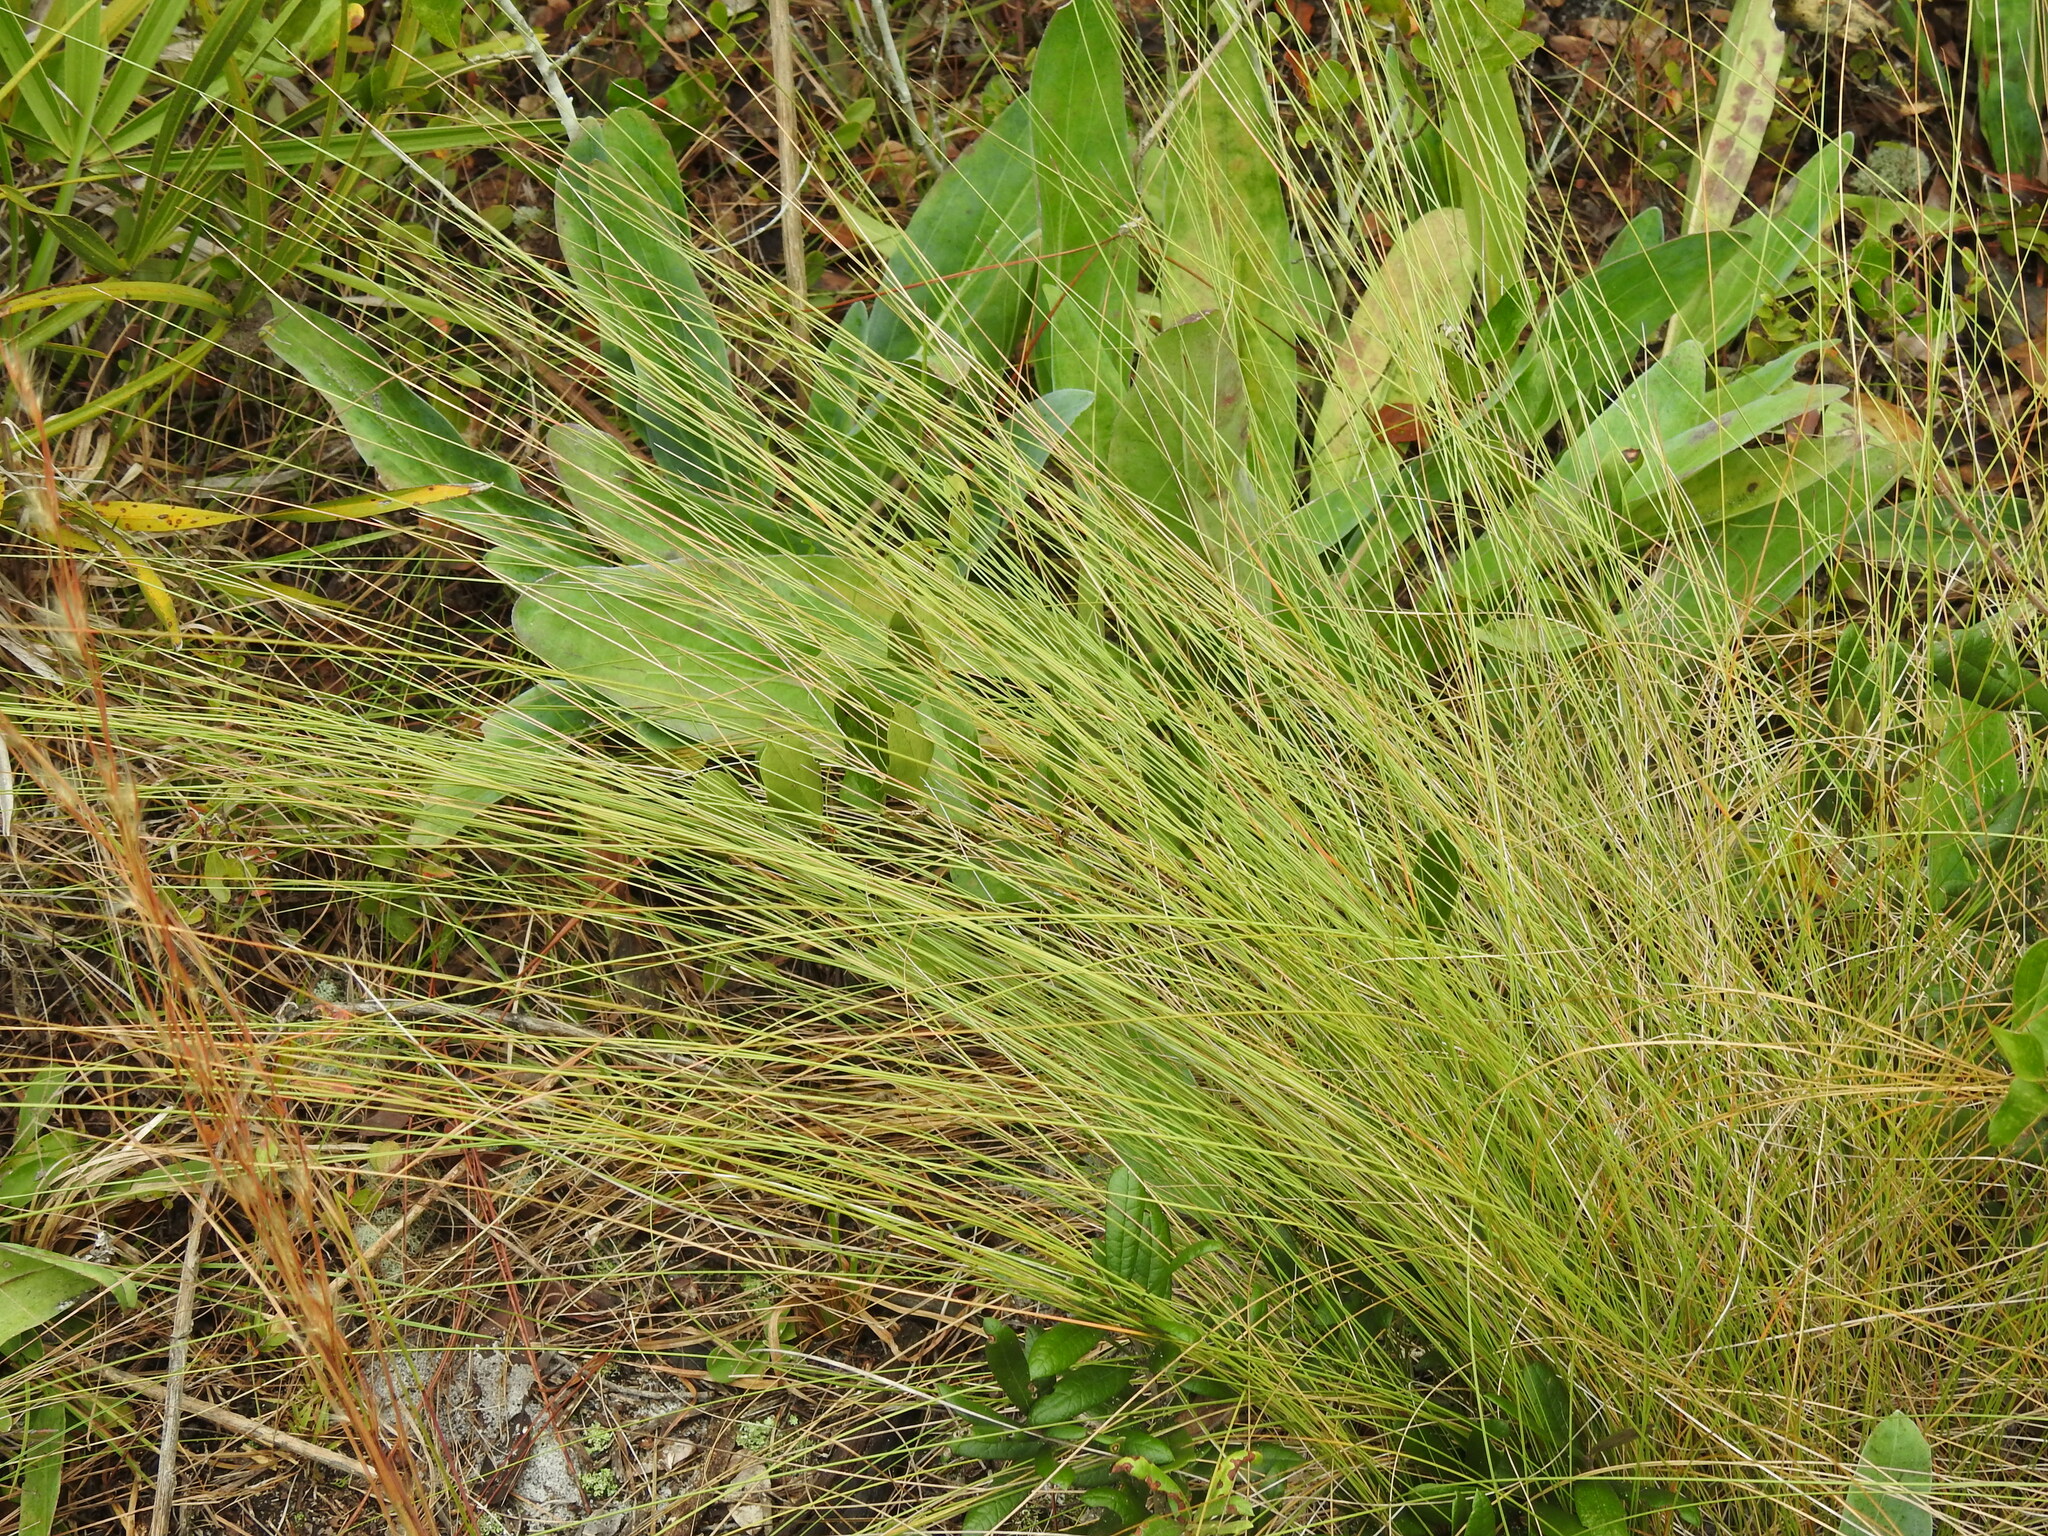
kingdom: Plantae
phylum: Tracheophyta
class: Liliopsida
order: Poales
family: Poaceae
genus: Aristida
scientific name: Aristida beyrichiana
